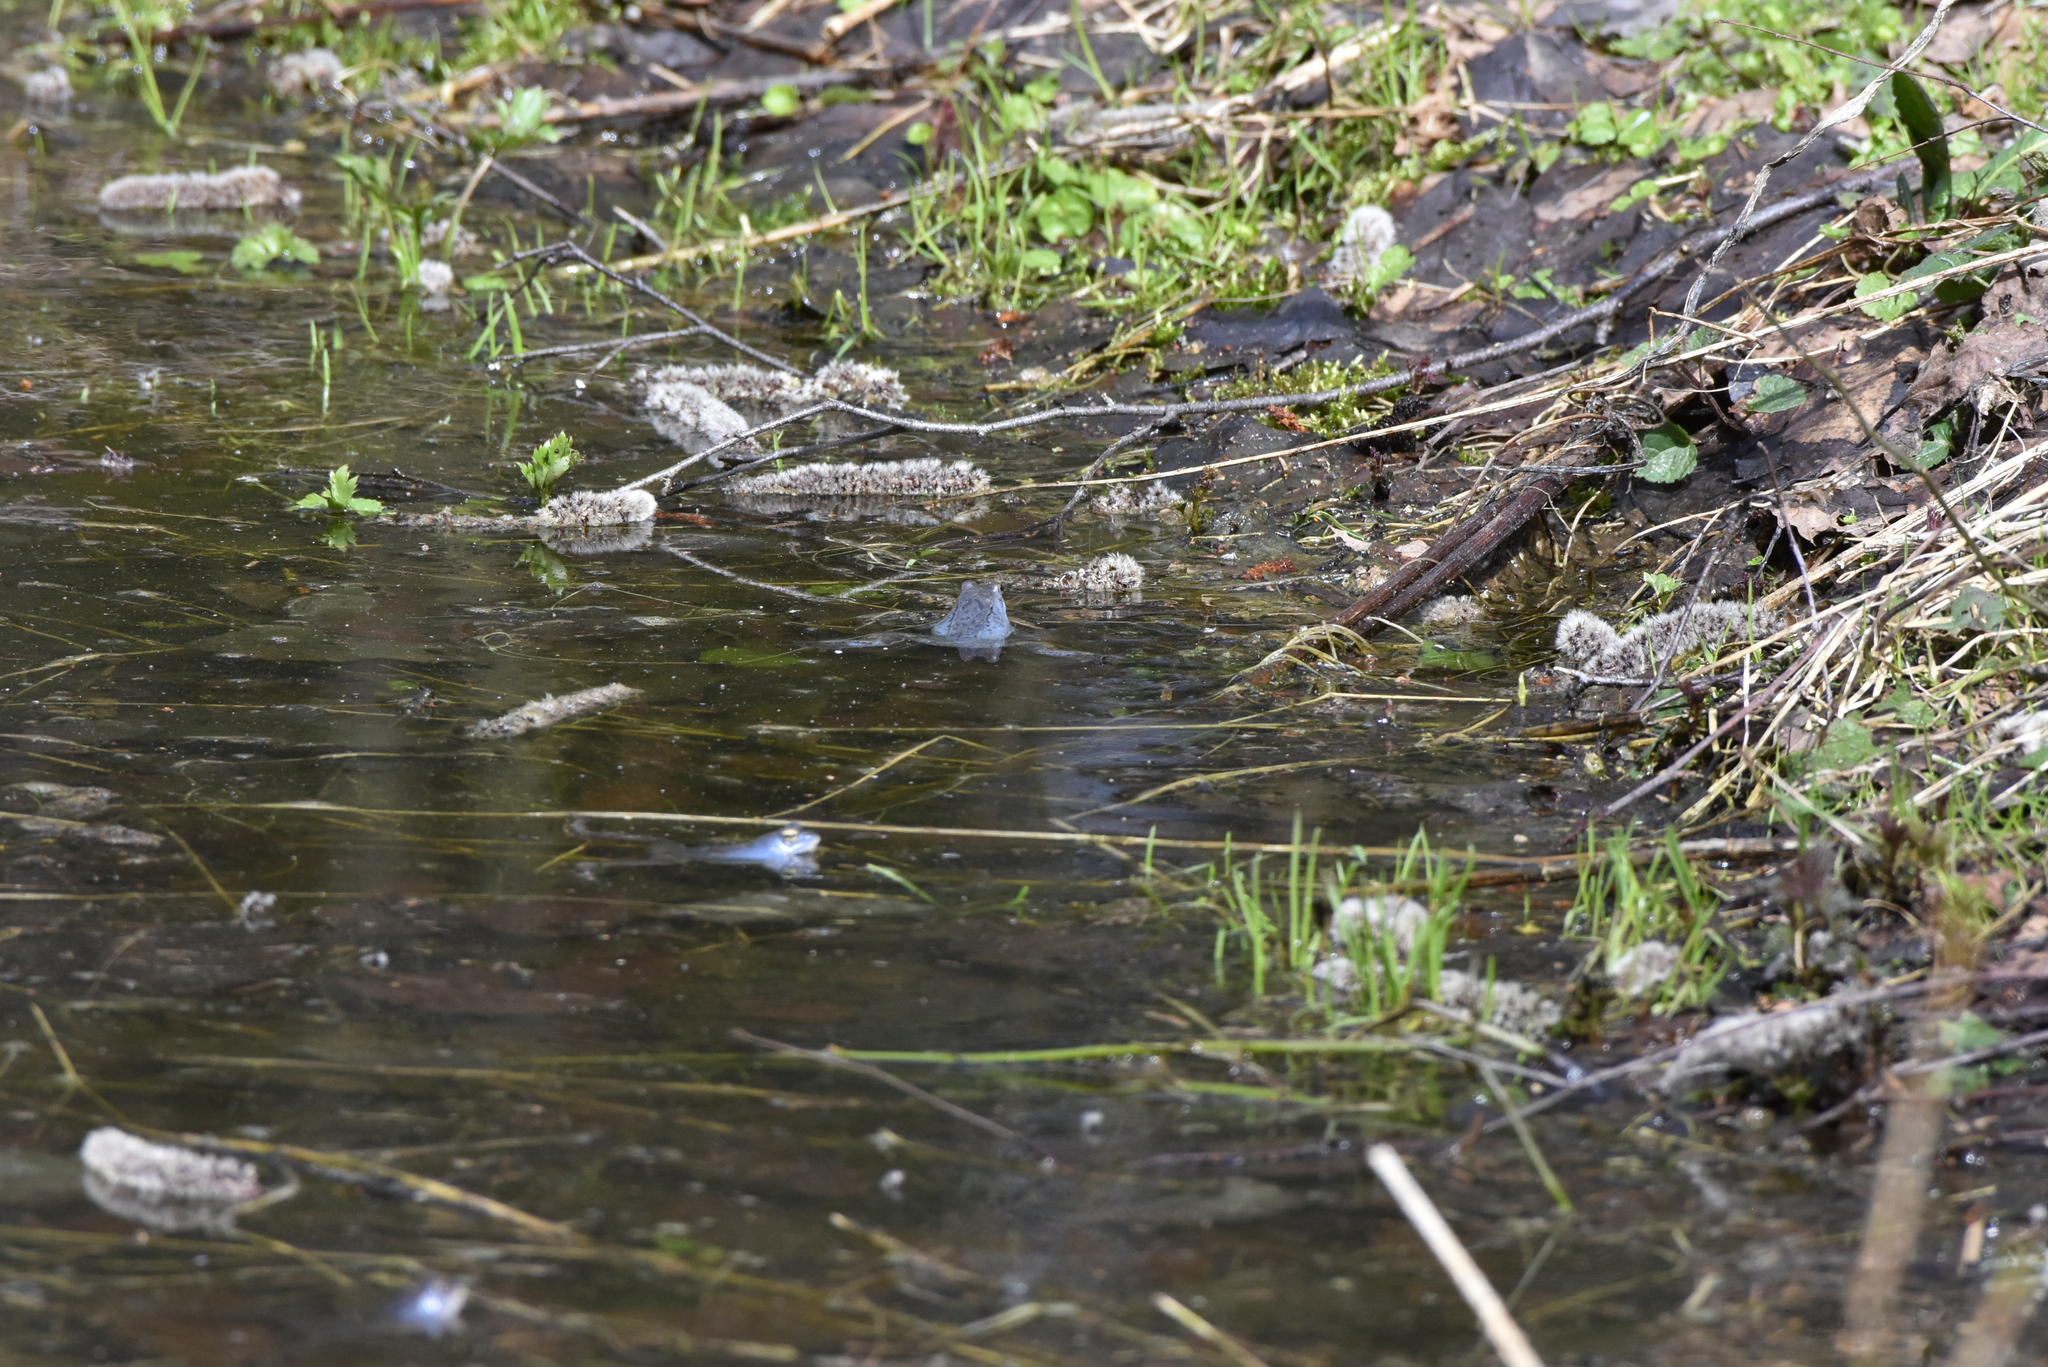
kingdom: Animalia
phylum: Chordata
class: Amphibia
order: Anura
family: Ranidae
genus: Rana
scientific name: Rana arvalis
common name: Moor frog
